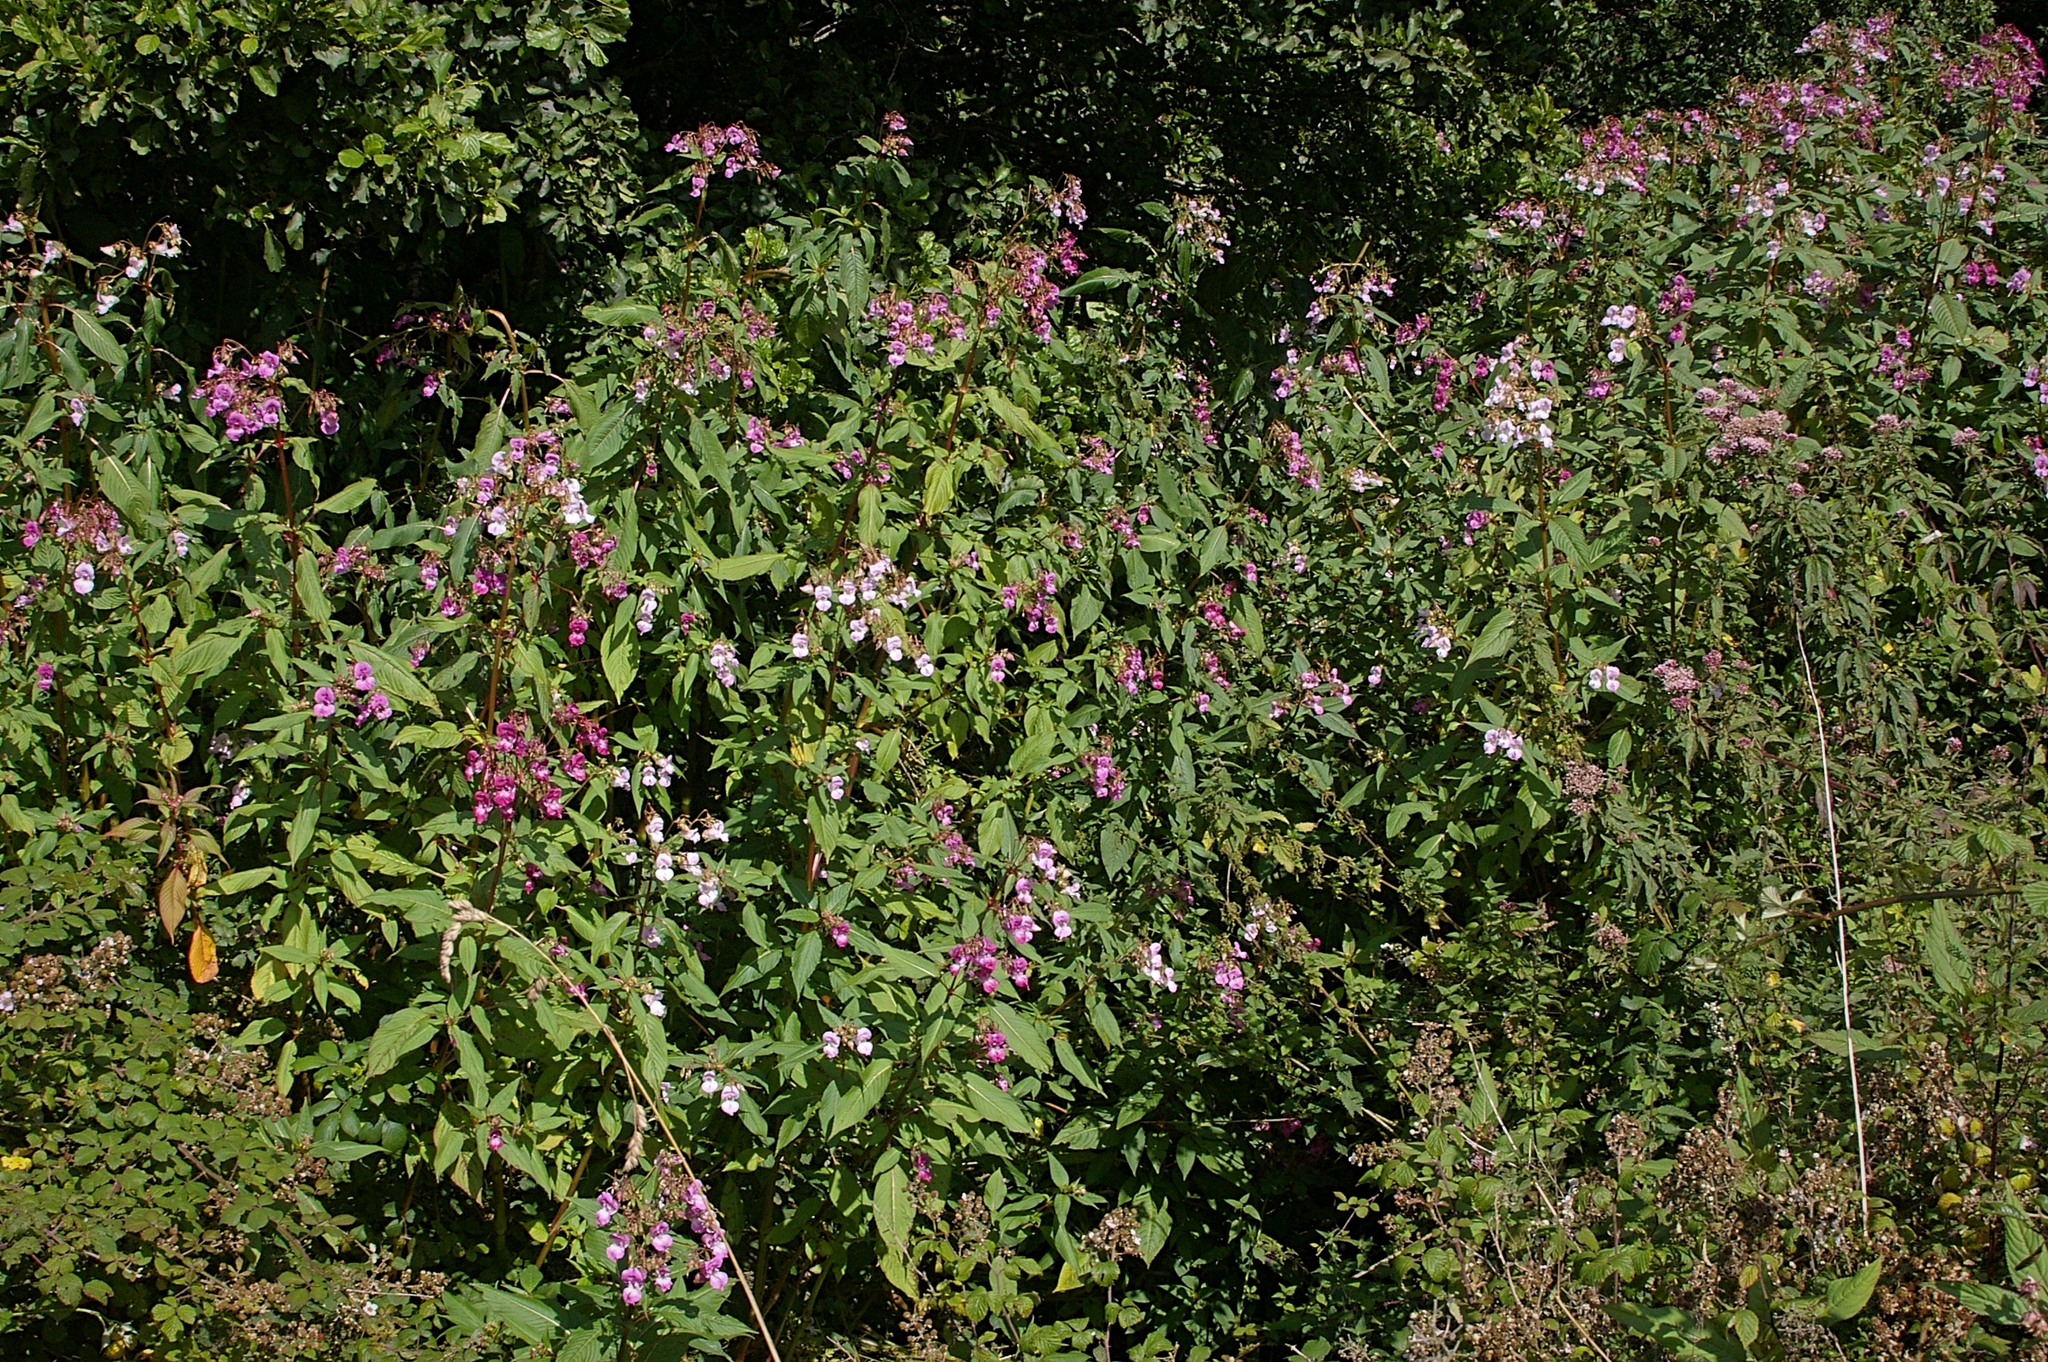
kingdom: Plantae
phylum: Tracheophyta
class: Magnoliopsida
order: Ericales
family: Balsaminaceae
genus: Impatiens
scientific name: Impatiens glandulifera
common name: Himalayan balsam
